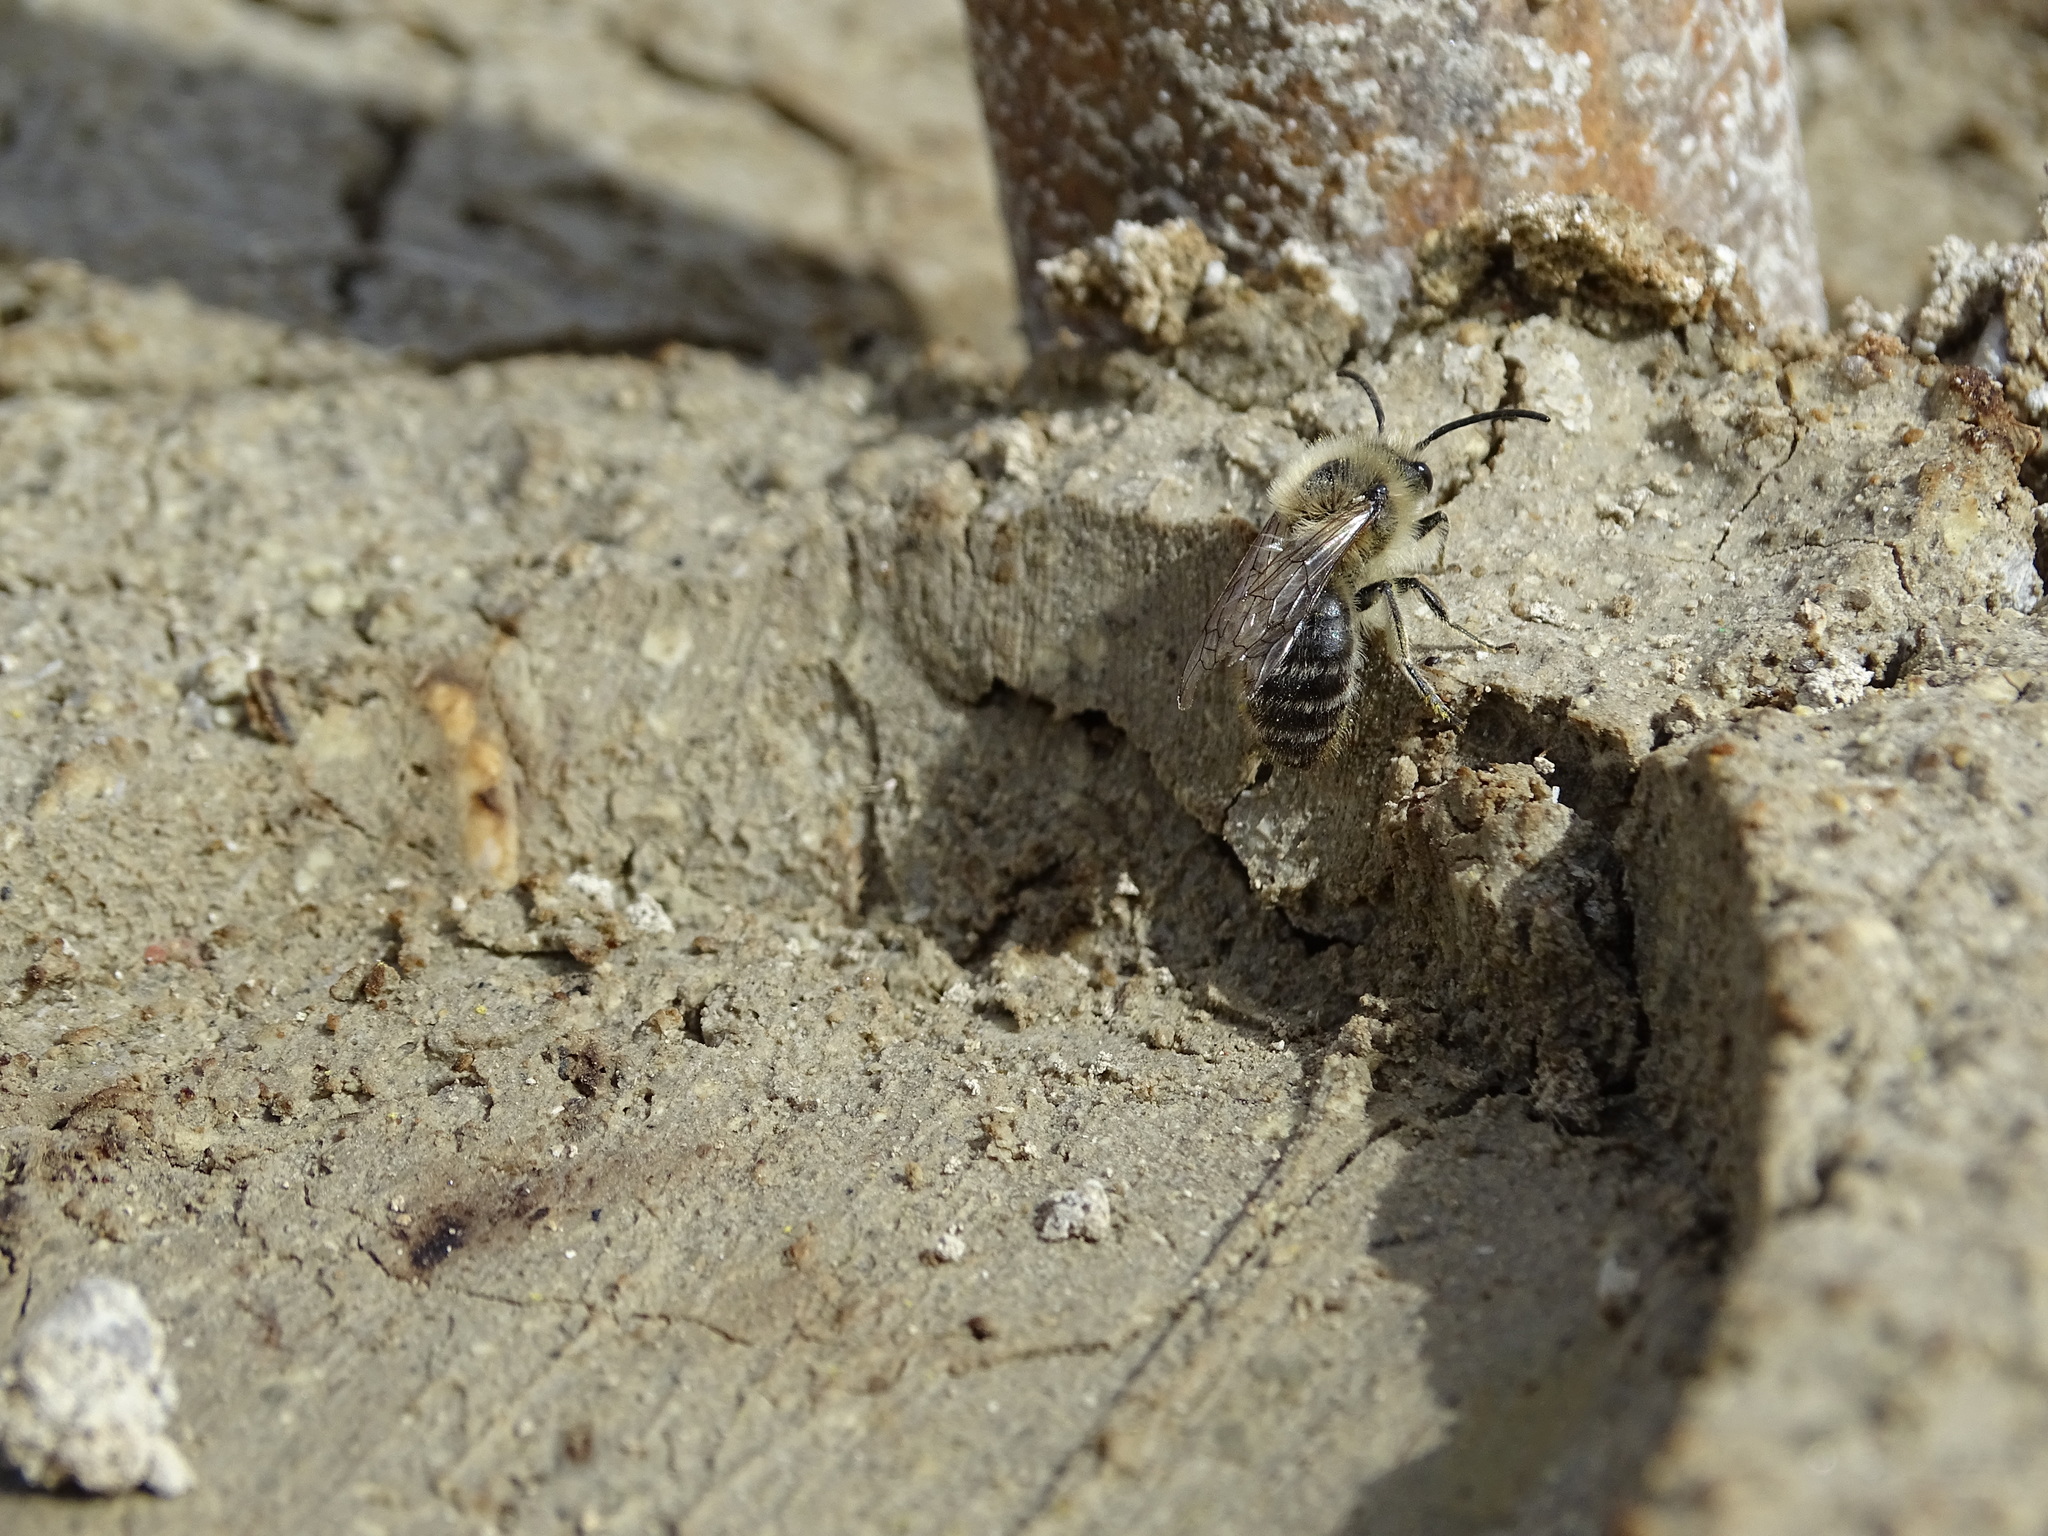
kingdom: Animalia
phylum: Arthropoda
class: Insecta
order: Hymenoptera
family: Colletidae
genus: Colletes
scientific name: Colletes cunicularius
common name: Early colletes
